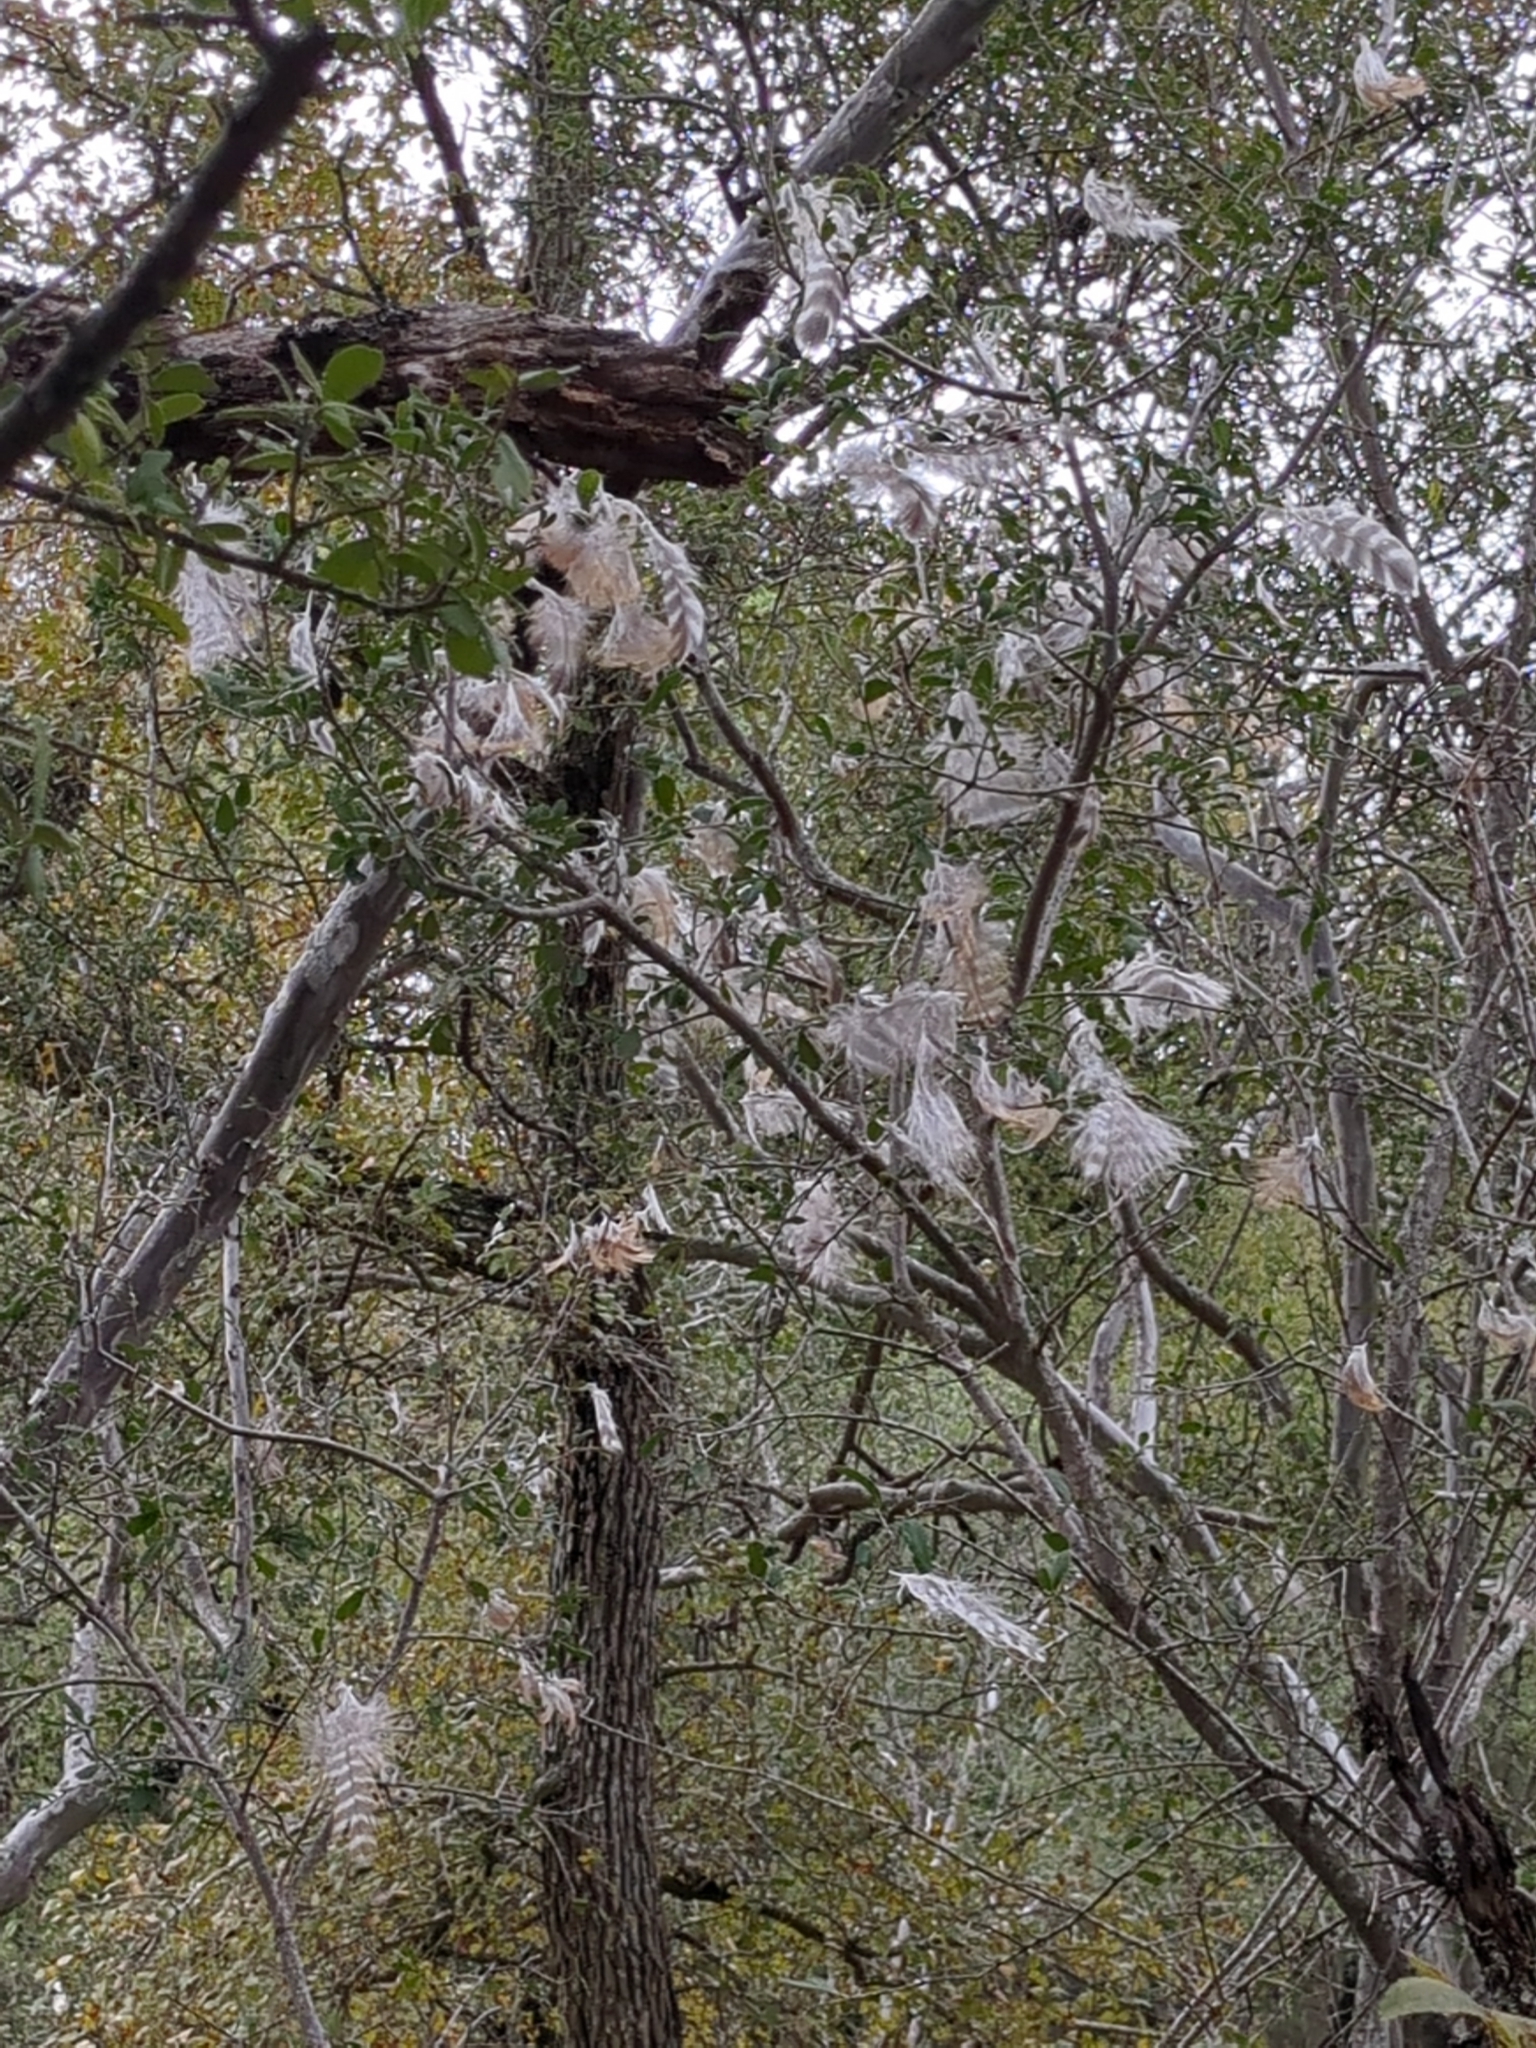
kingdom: Animalia
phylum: Chordata
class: Aves
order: Accipitriformes
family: Accipitridae
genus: Buteo
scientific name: Buteo lineatus
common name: Red-shouldered hawk
